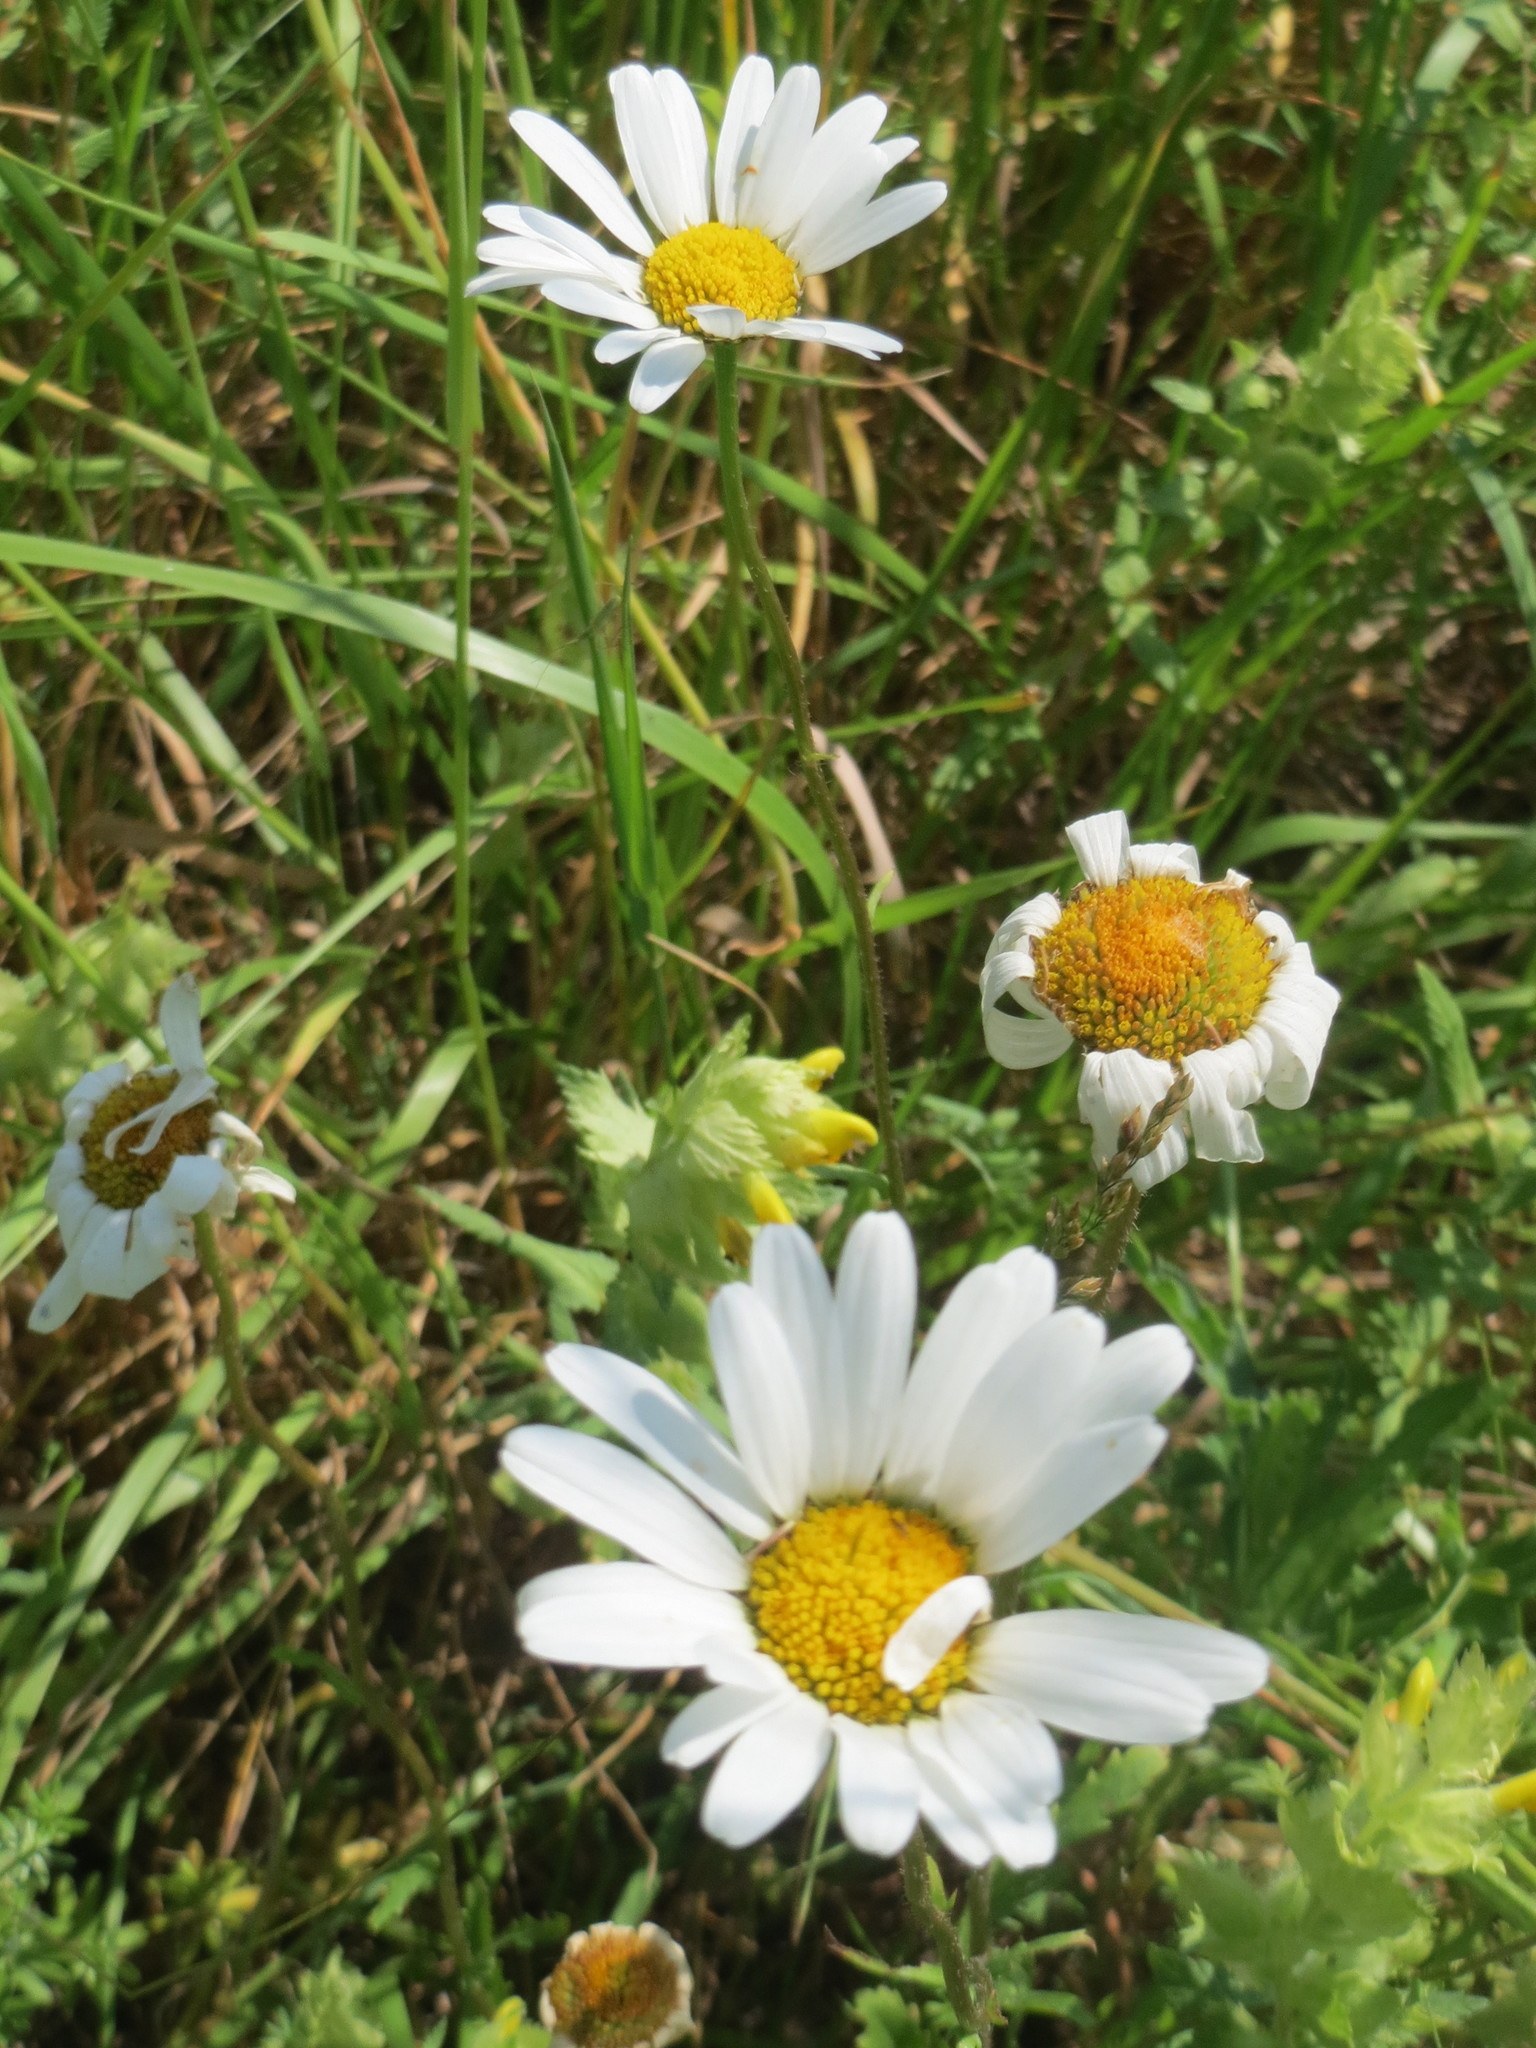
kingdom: Plantae
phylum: Tracheophyta
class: Magnoliopsida
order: Asterales
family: Asteraceae
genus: Leucanthemum
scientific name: Leucanthemum vulgare
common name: Oxeye daisy
